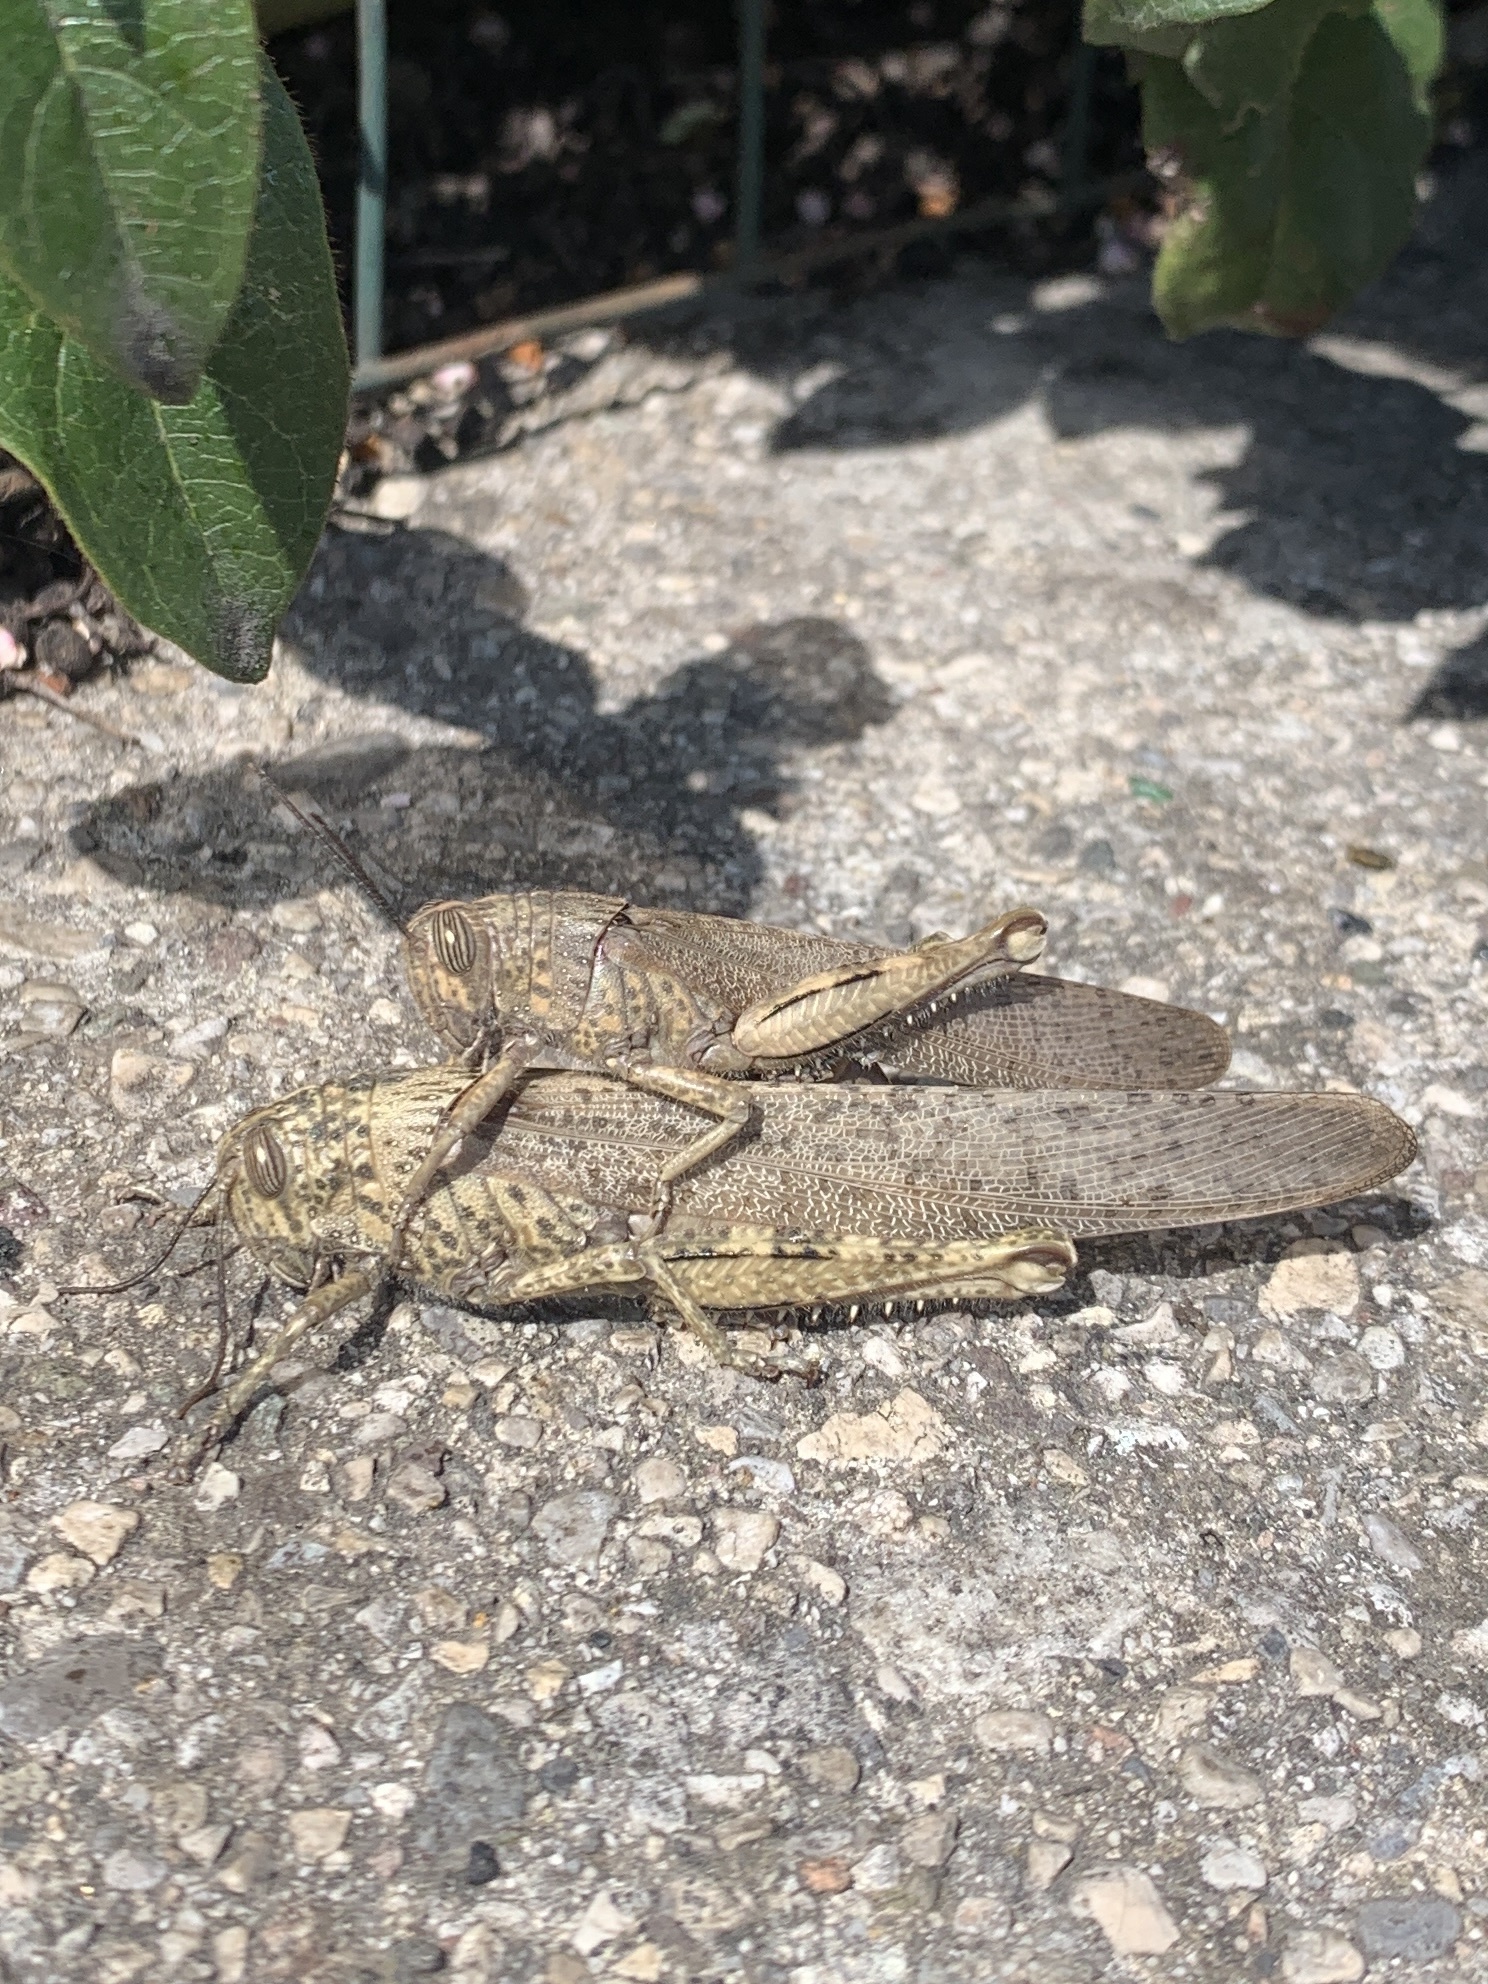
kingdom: Animalia
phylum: Arthropoda
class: Insecta
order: Orthoptera
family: Acrididae
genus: Anacridium
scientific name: Anacridium aegyptium
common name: Egyptian grasshopper
